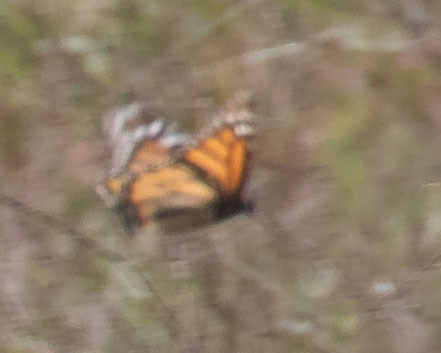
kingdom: Animalia
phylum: Arthropoda
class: Insecta
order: Lepidoptera
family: Nymphalidae
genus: Danaus
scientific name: Danaus plexippus
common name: Monarch
